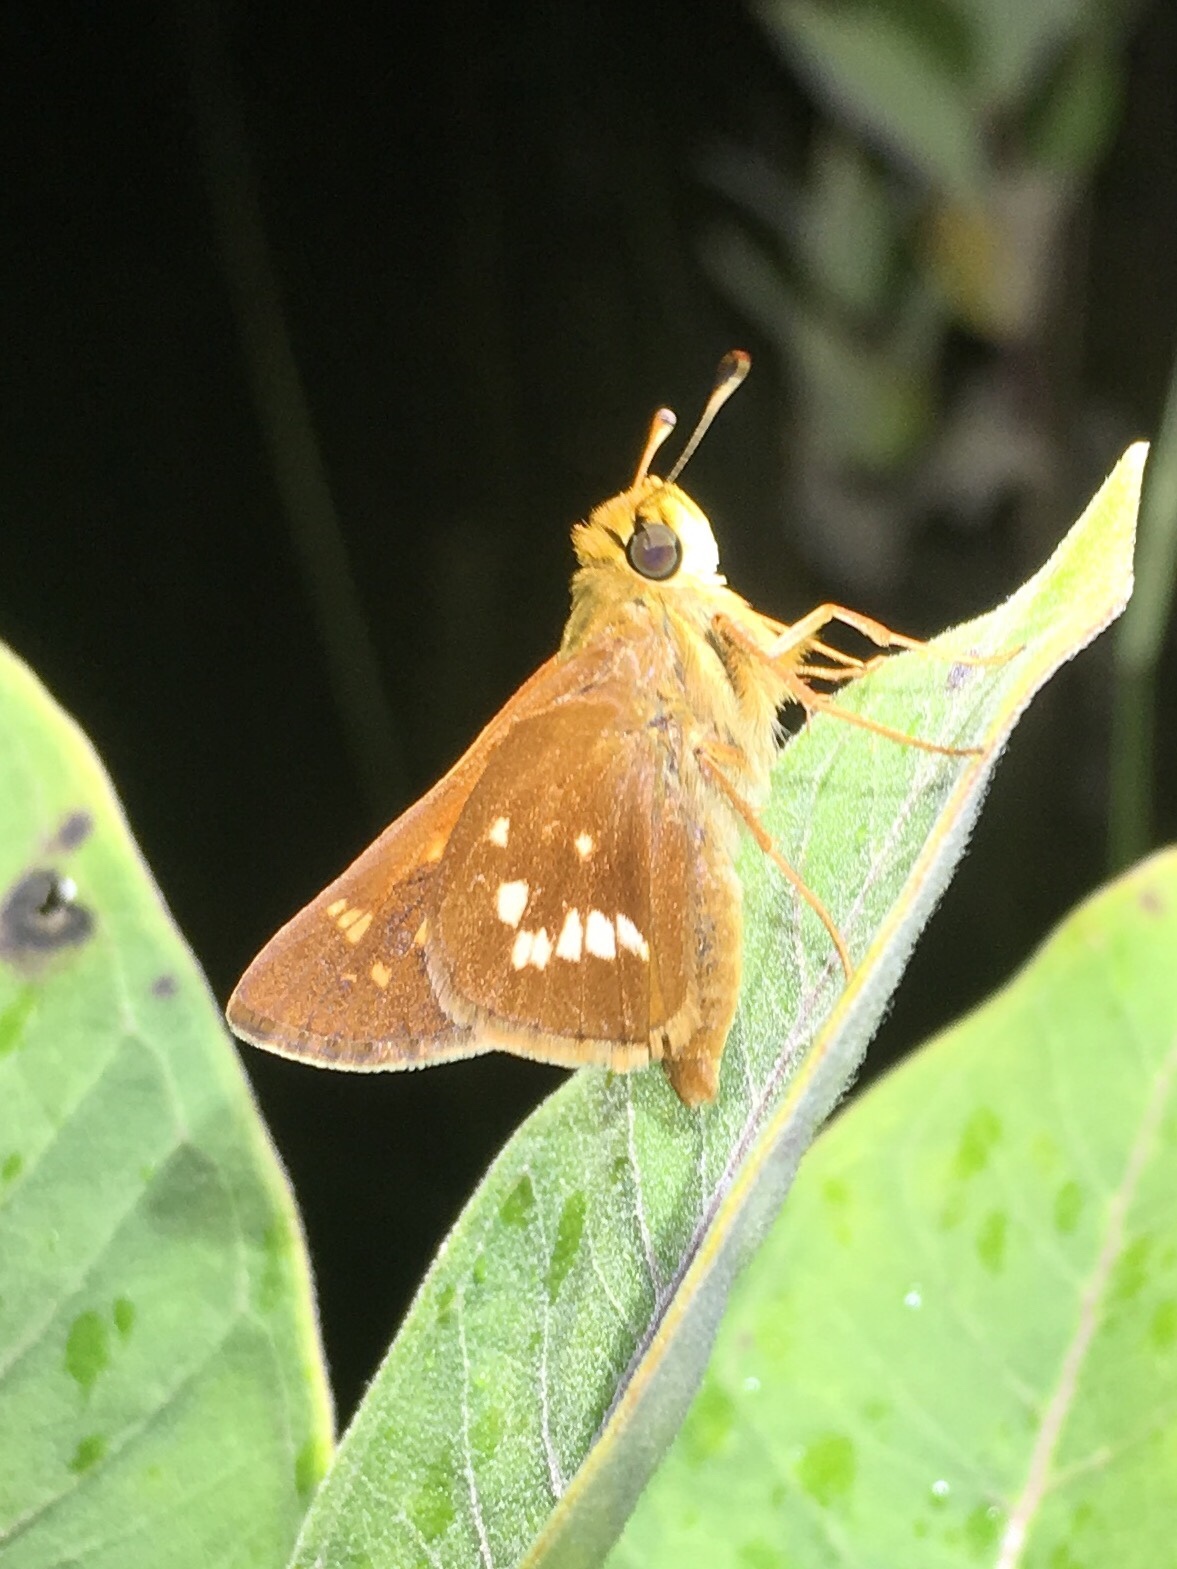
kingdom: Animalia
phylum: Arthropoda
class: Insecta
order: Lepidoptera
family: Hesperiidae
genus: Hesperia
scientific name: Hesperia leonardus
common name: Leonard's skipper
